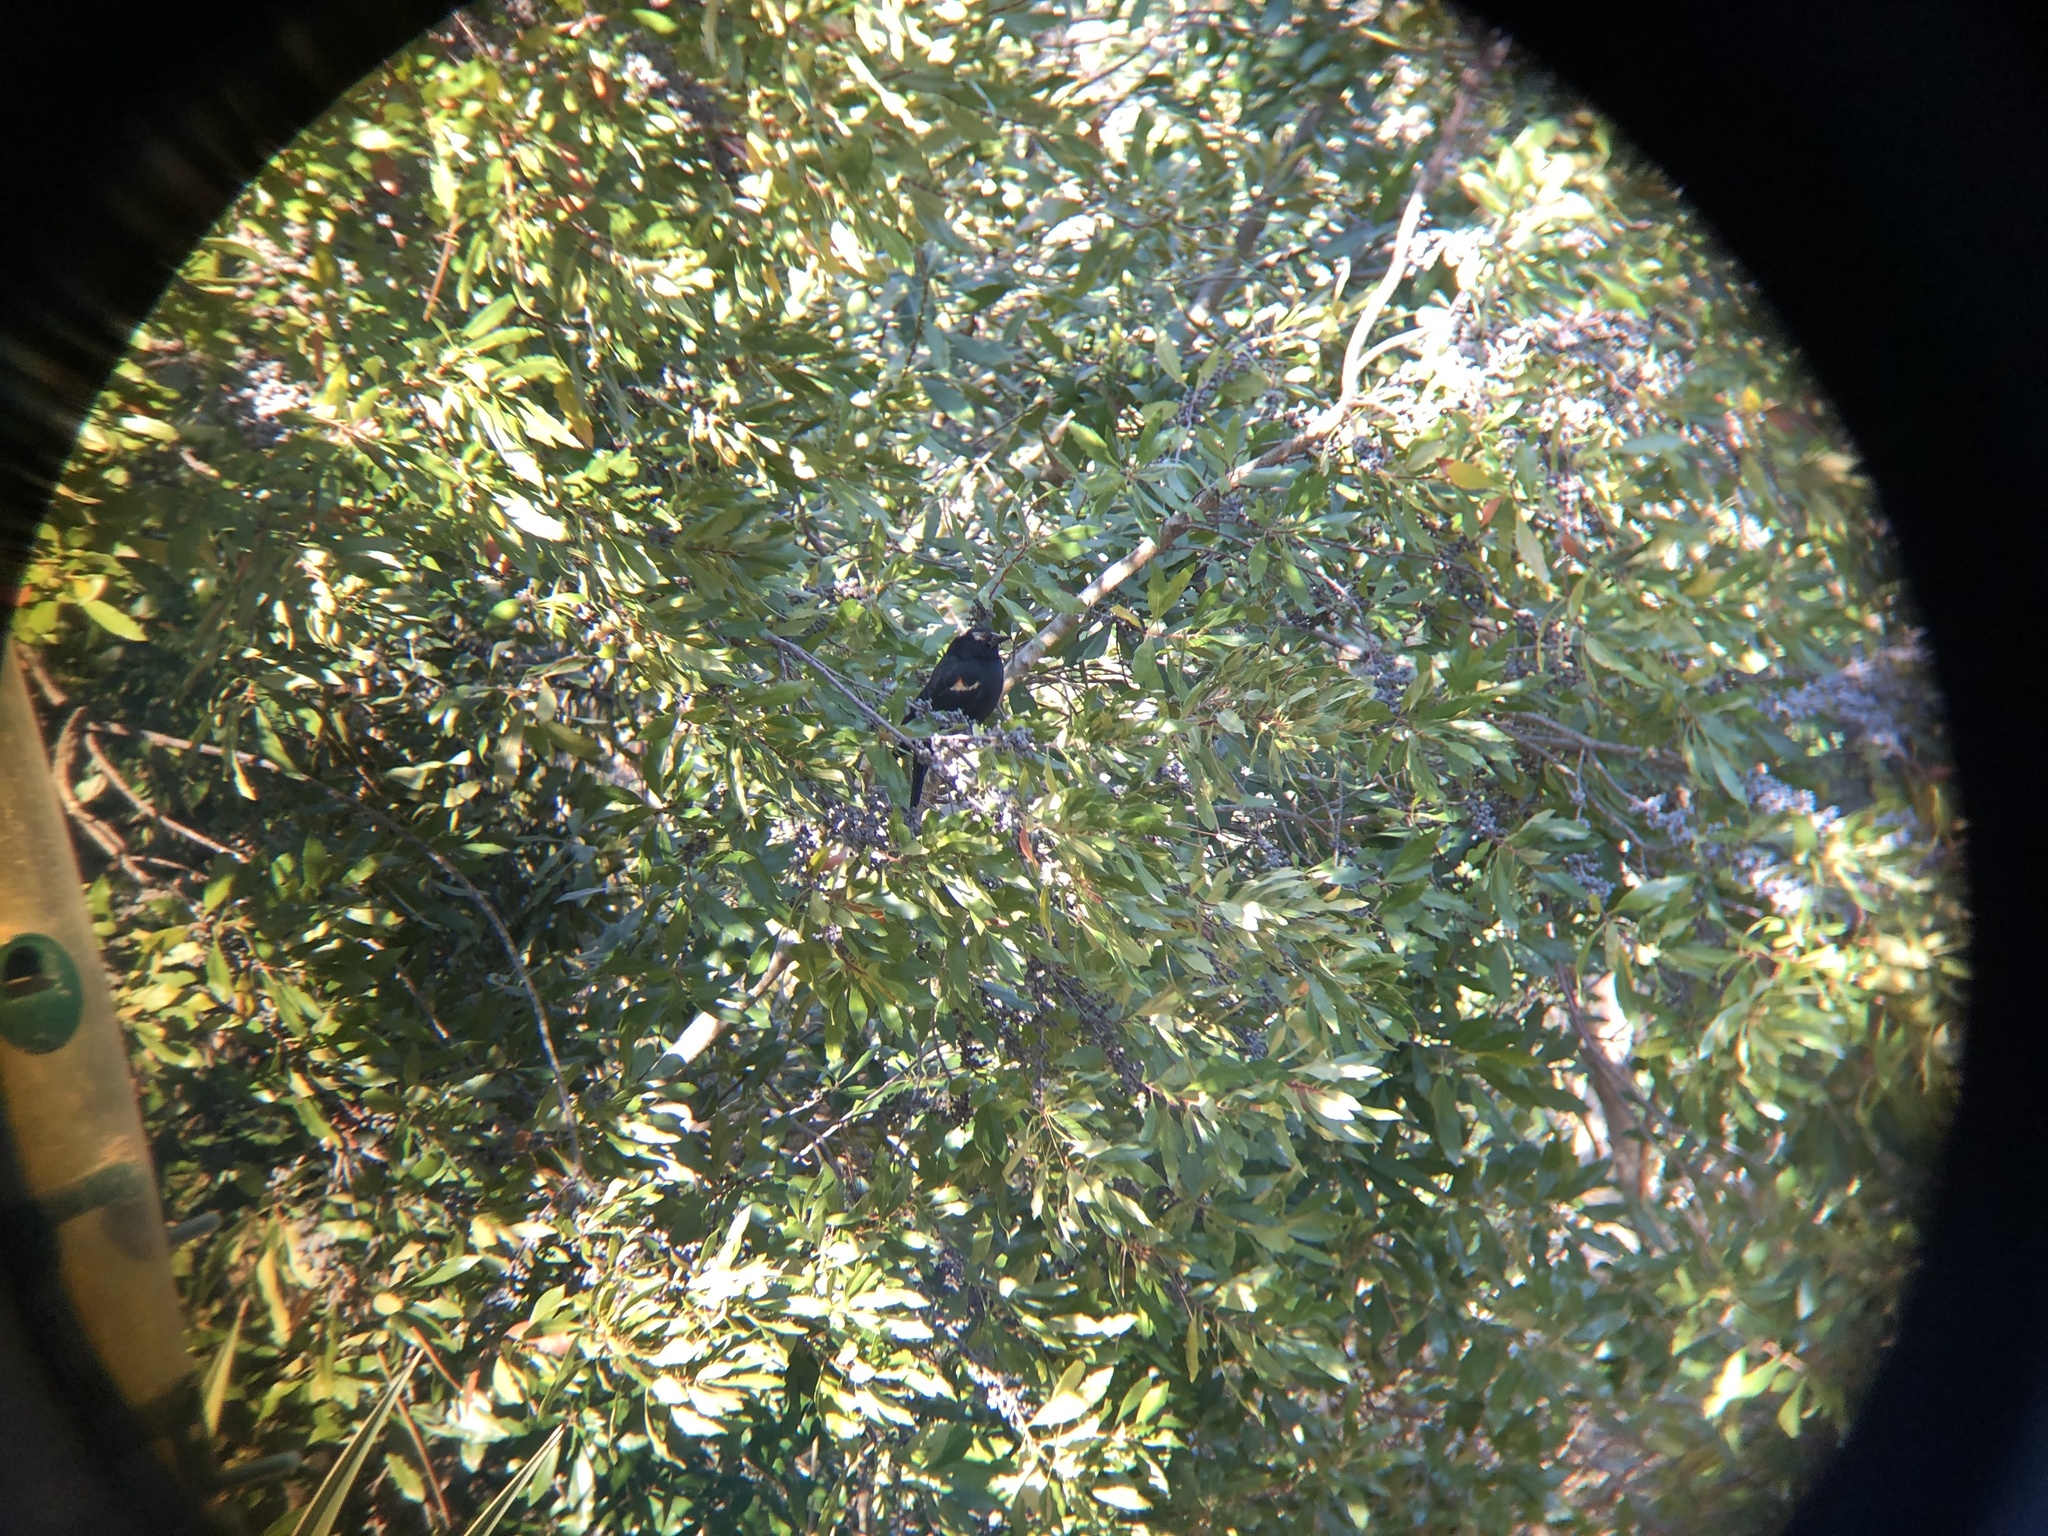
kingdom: Animalia
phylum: Chordata
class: Aves
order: Passeriformes
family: Icteridae
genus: Agelaius
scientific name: Agelaius phoeniceus
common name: Red-winged blackbird
